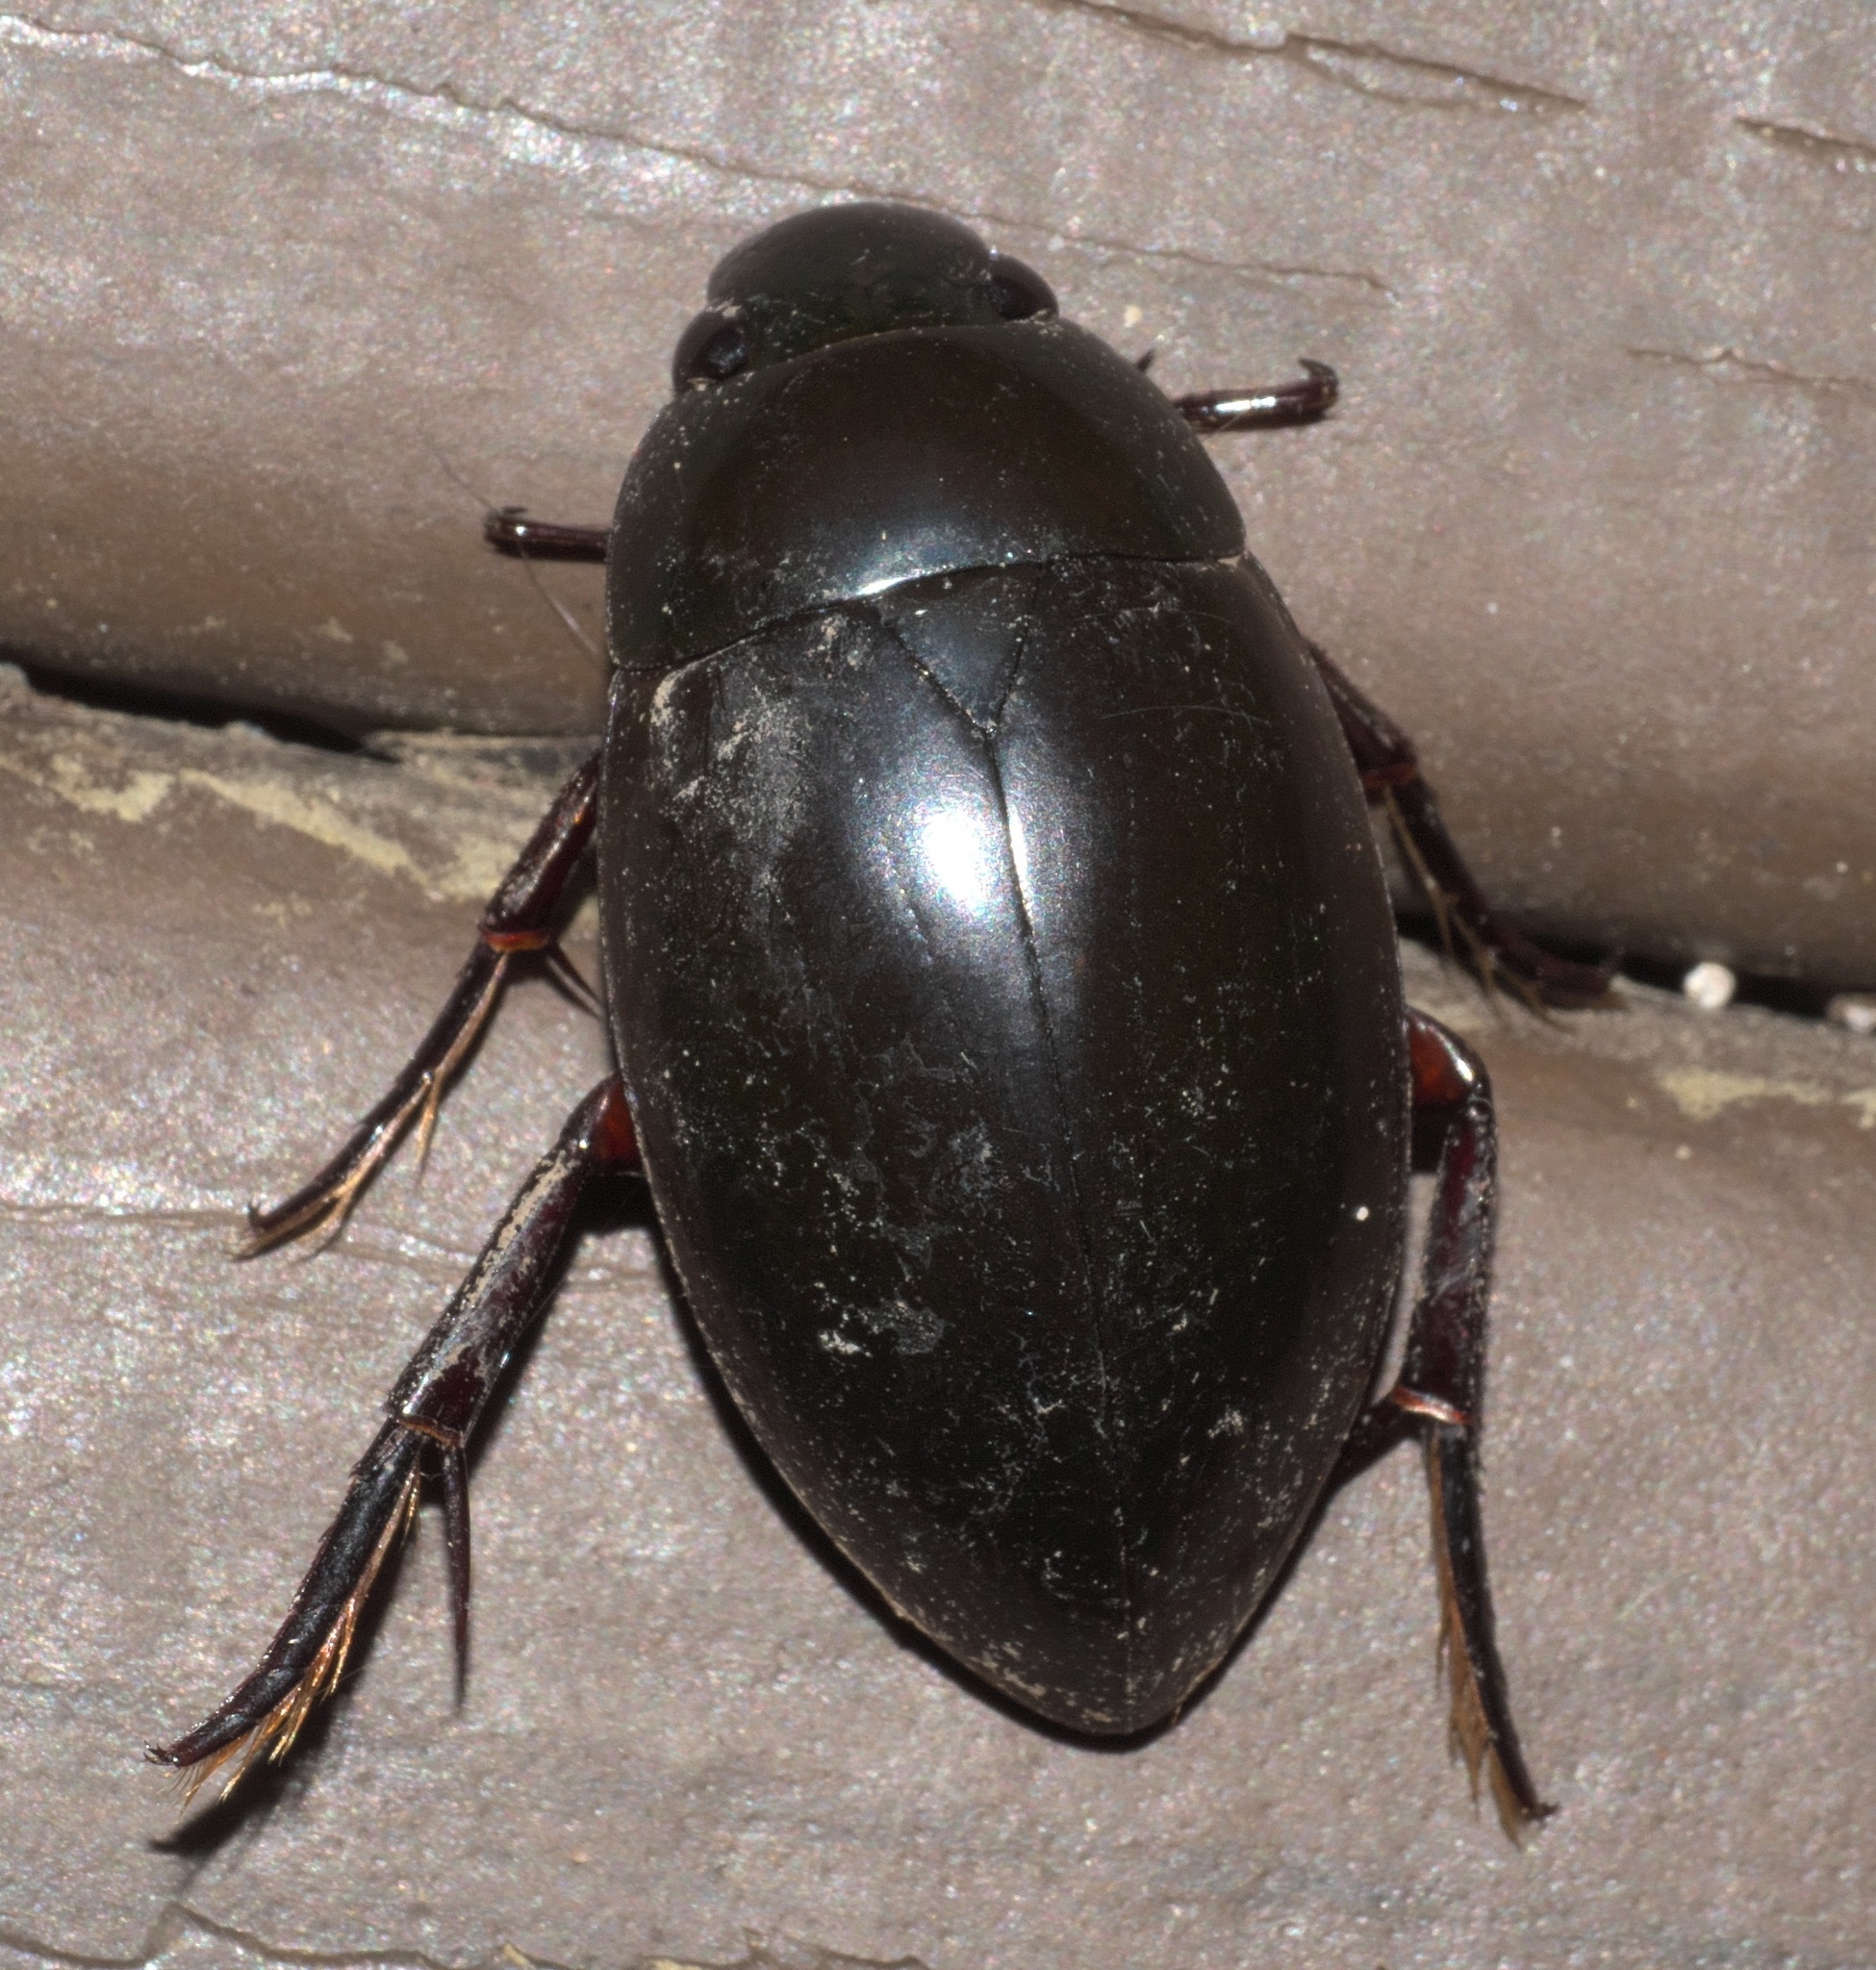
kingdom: Animalia
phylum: Arthropoda
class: Insecta
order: Coleoptera
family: Hydrophilidae
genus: Hydrophilus
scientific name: Hydrophilus ovatus
